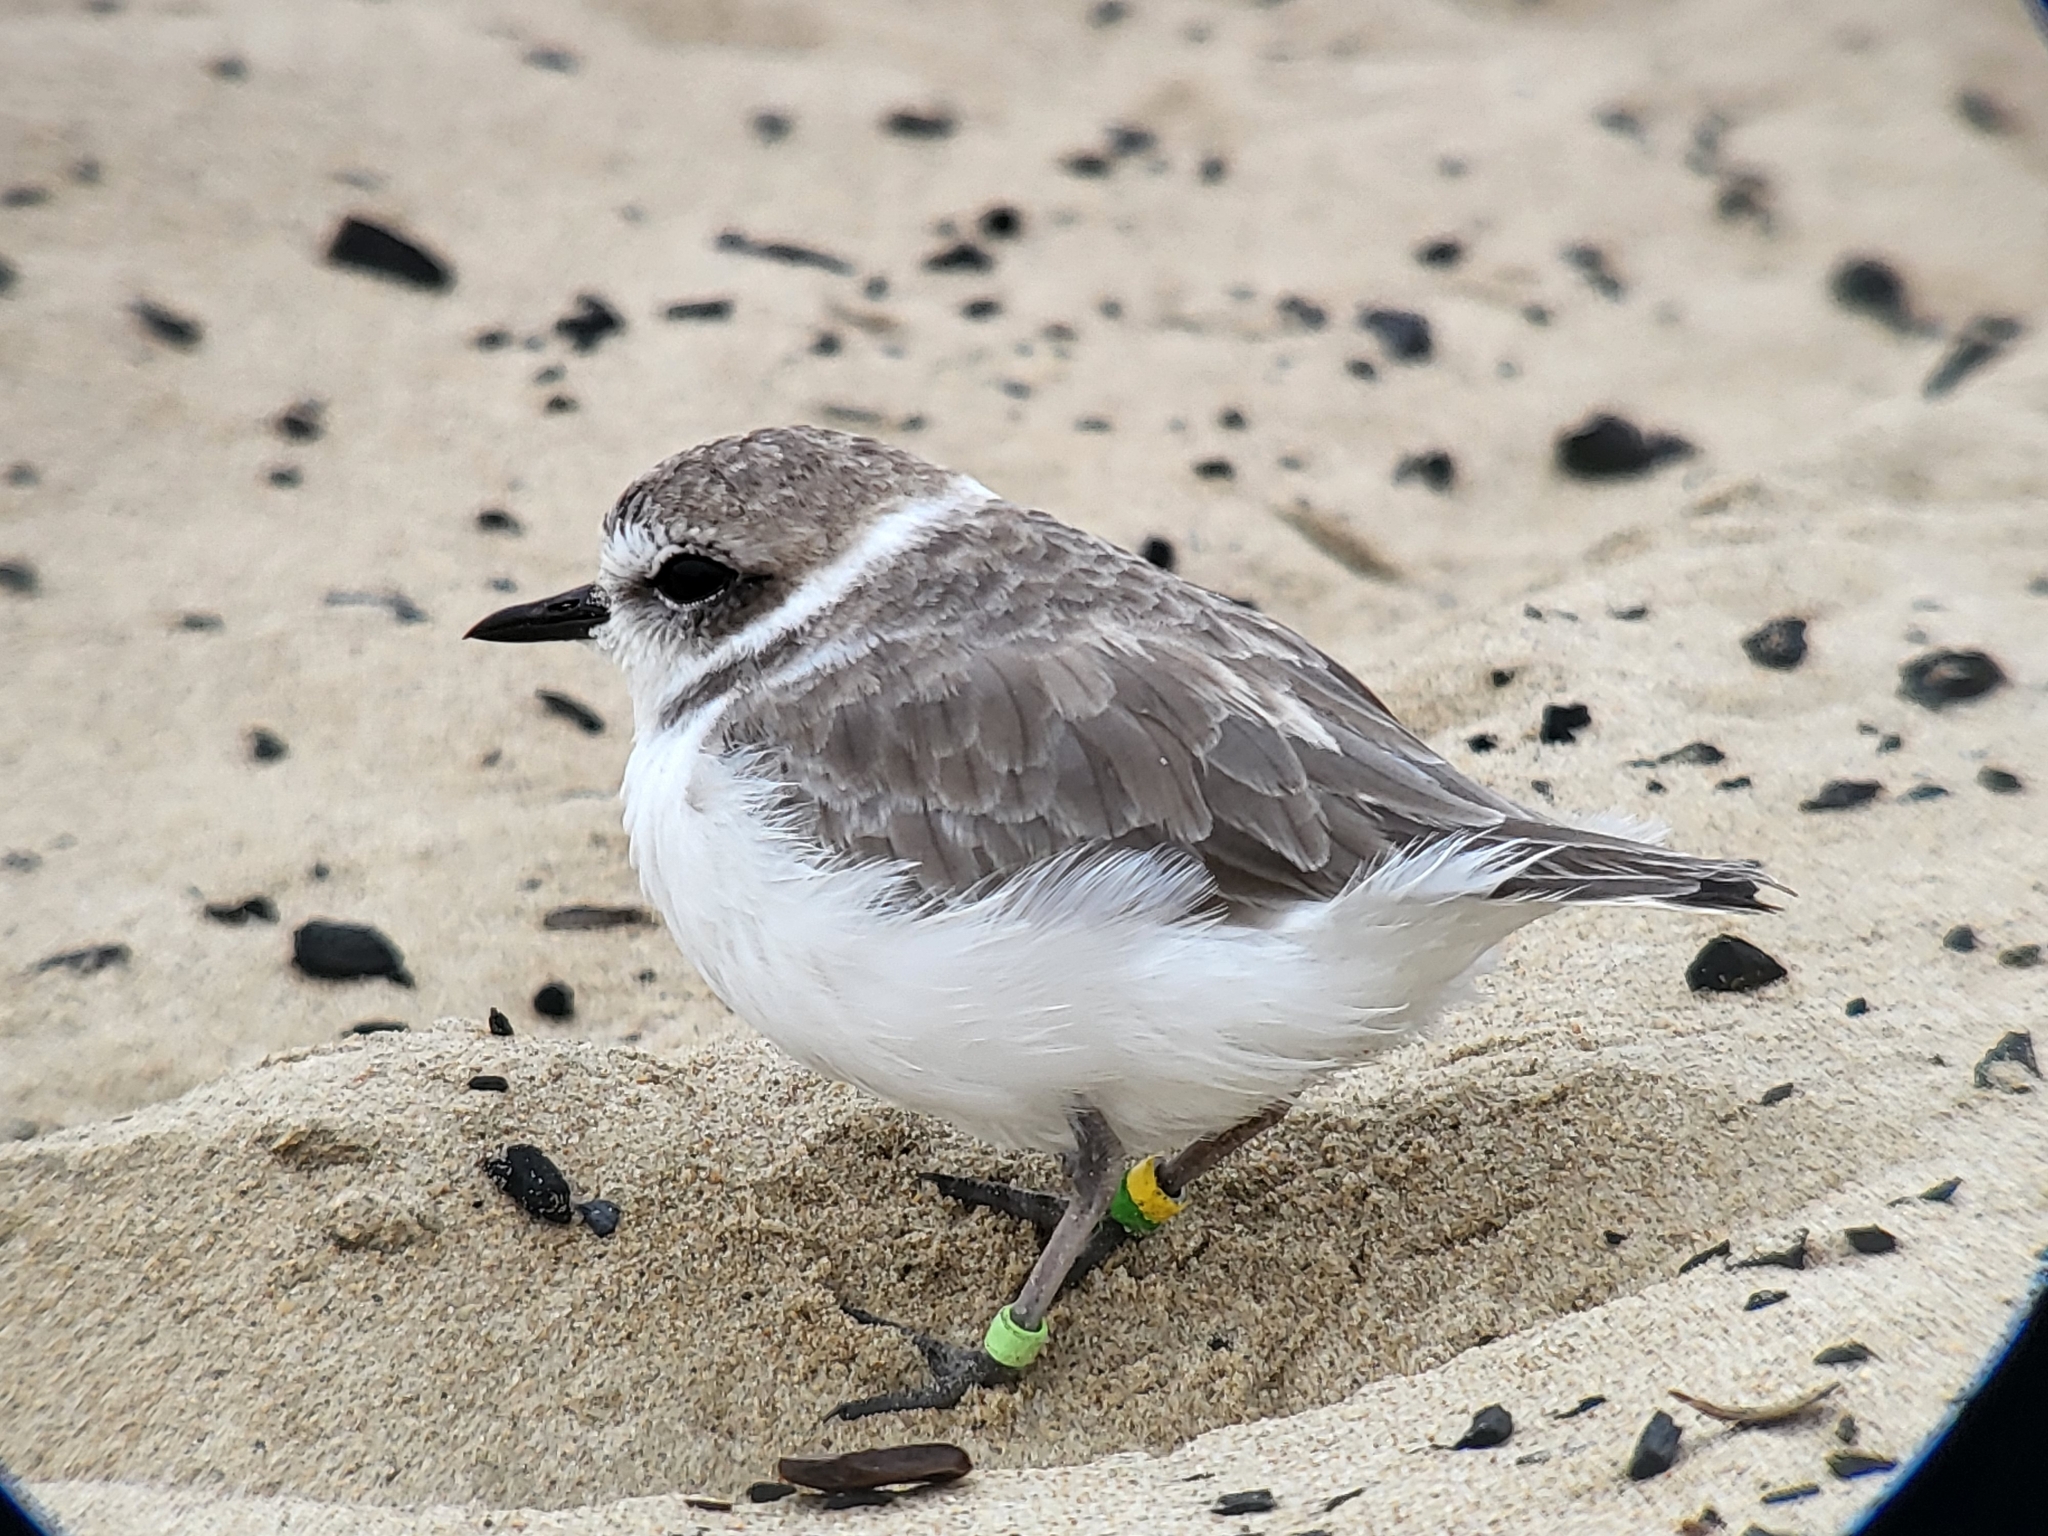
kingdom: Animalia
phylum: Chordata
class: Aves
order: Charadriiformes
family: Charadriidae
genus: Anarhynchus
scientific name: Anarhynchus
